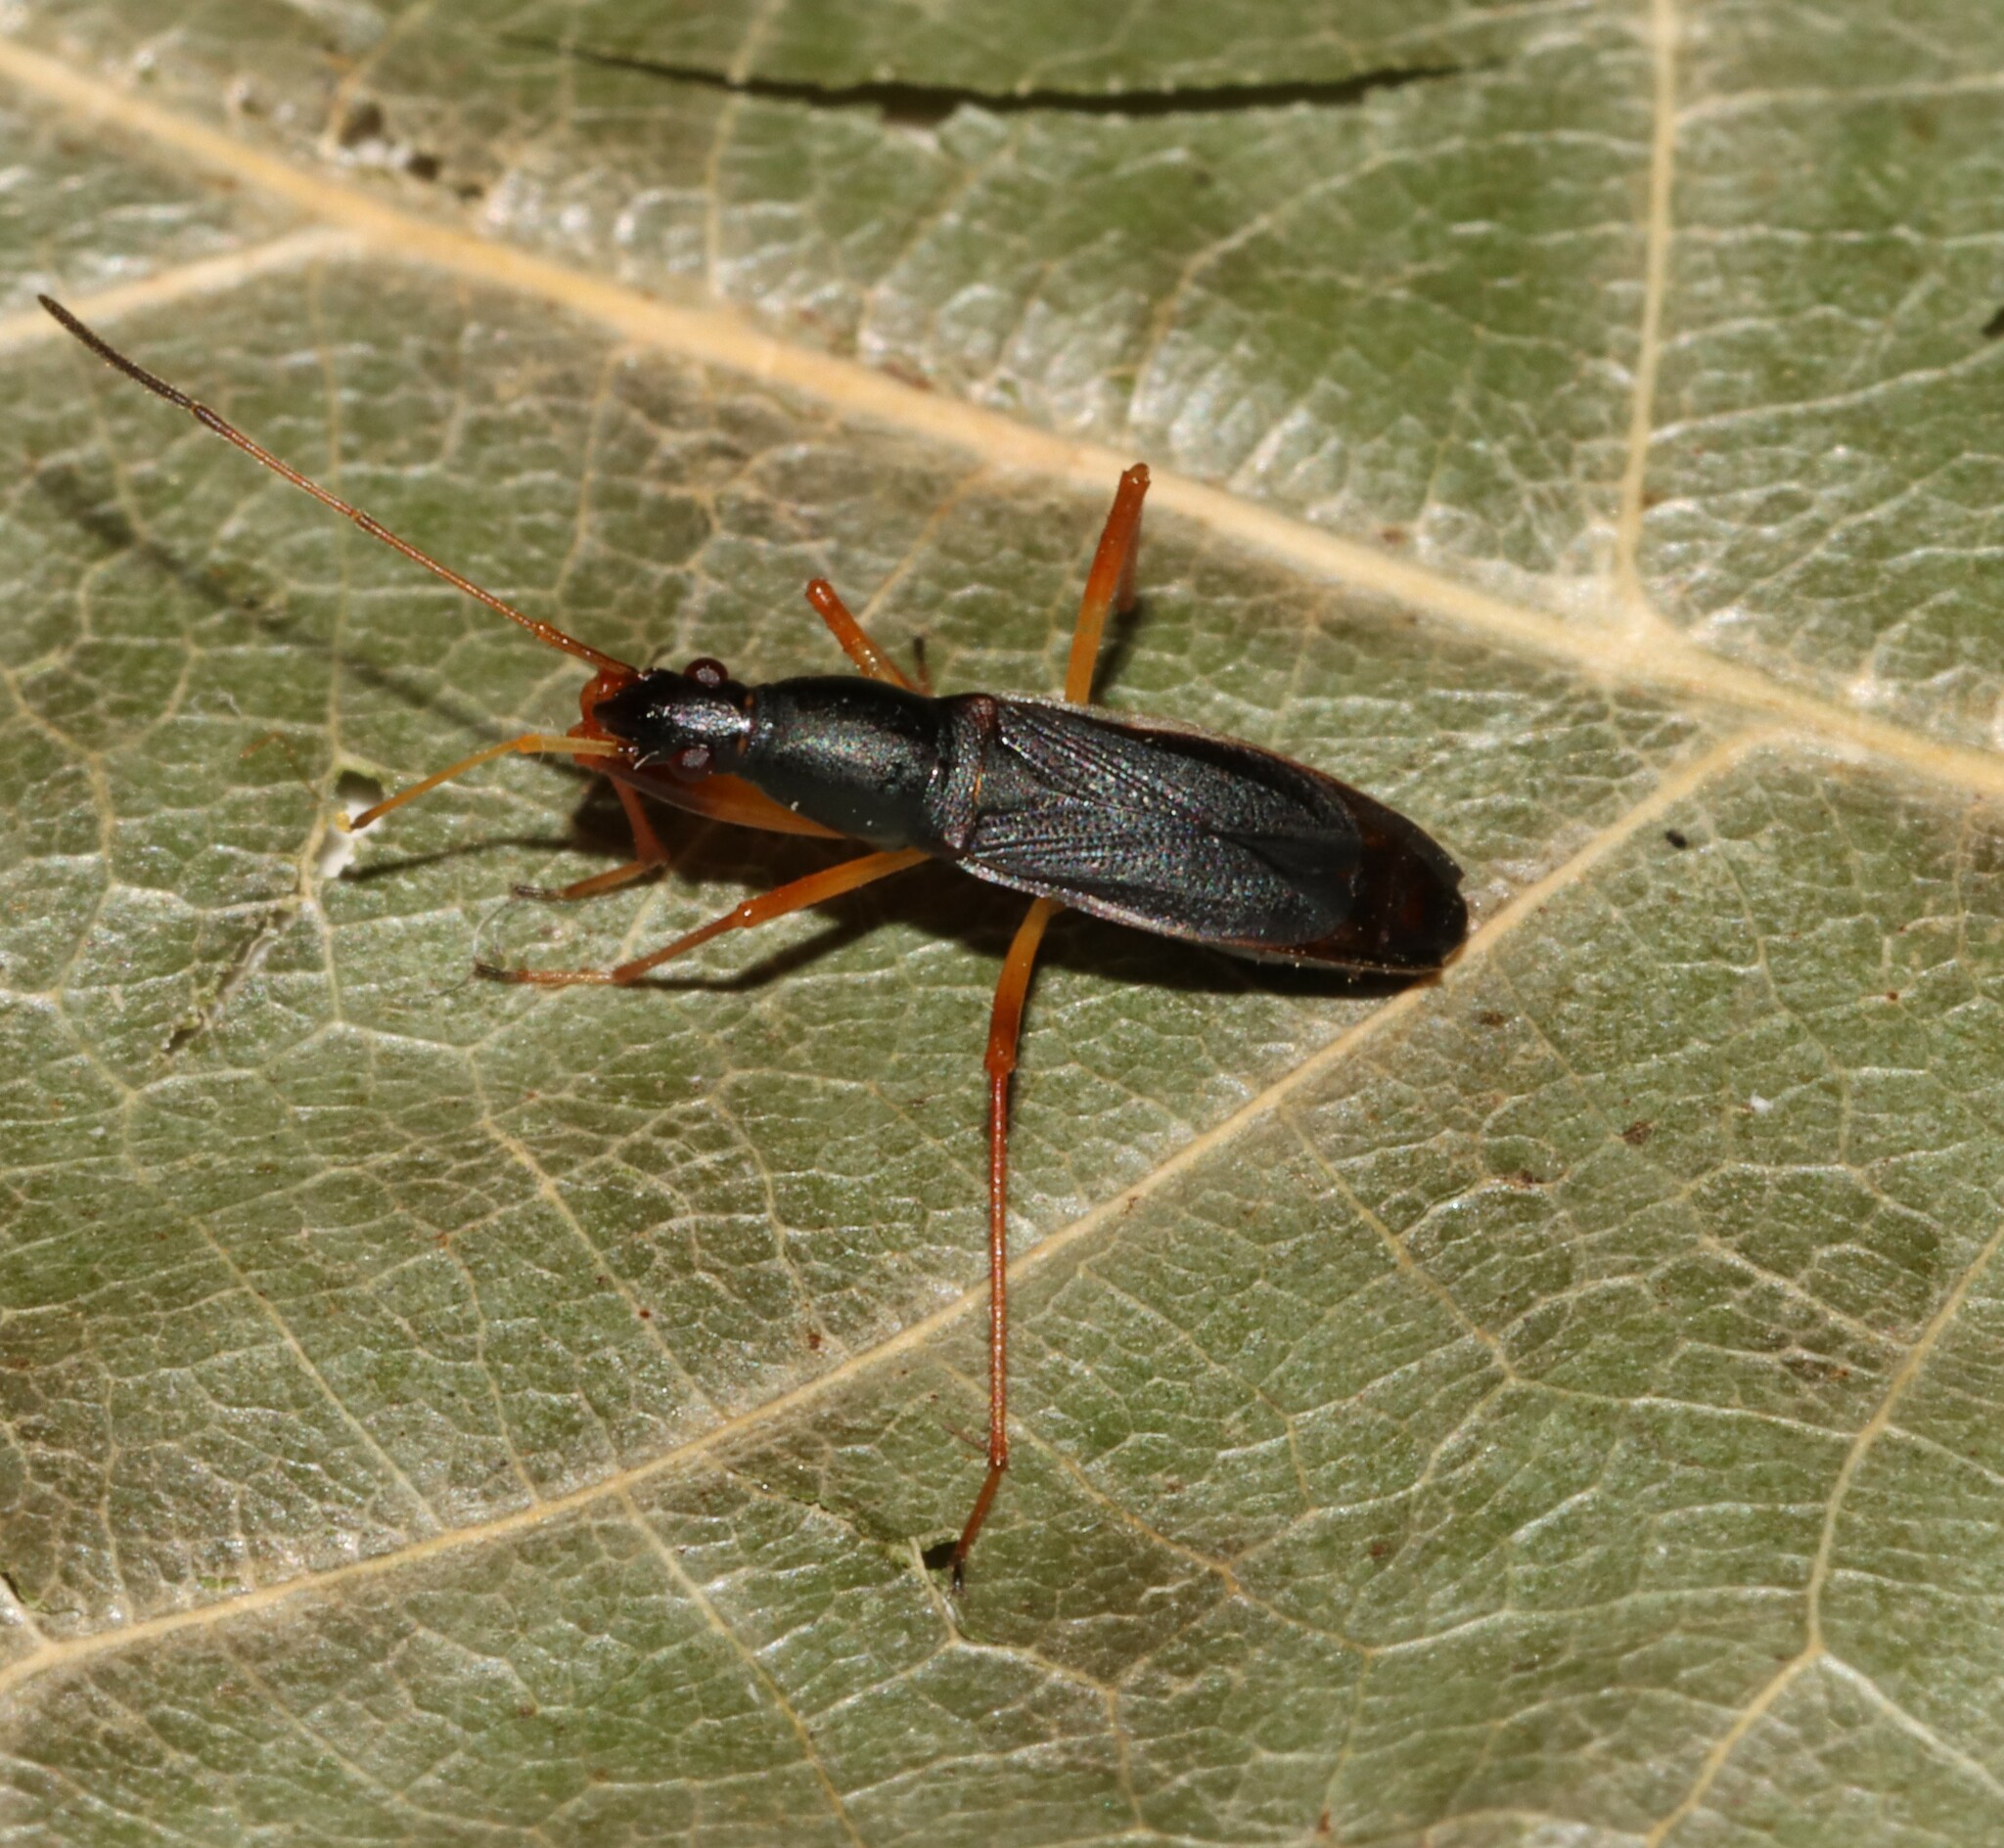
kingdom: Animalia
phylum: Arthropoda
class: Insecta
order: Hemiptera
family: Rhyparochromidae
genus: Cnemodus
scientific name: Cnemodus mavortius
